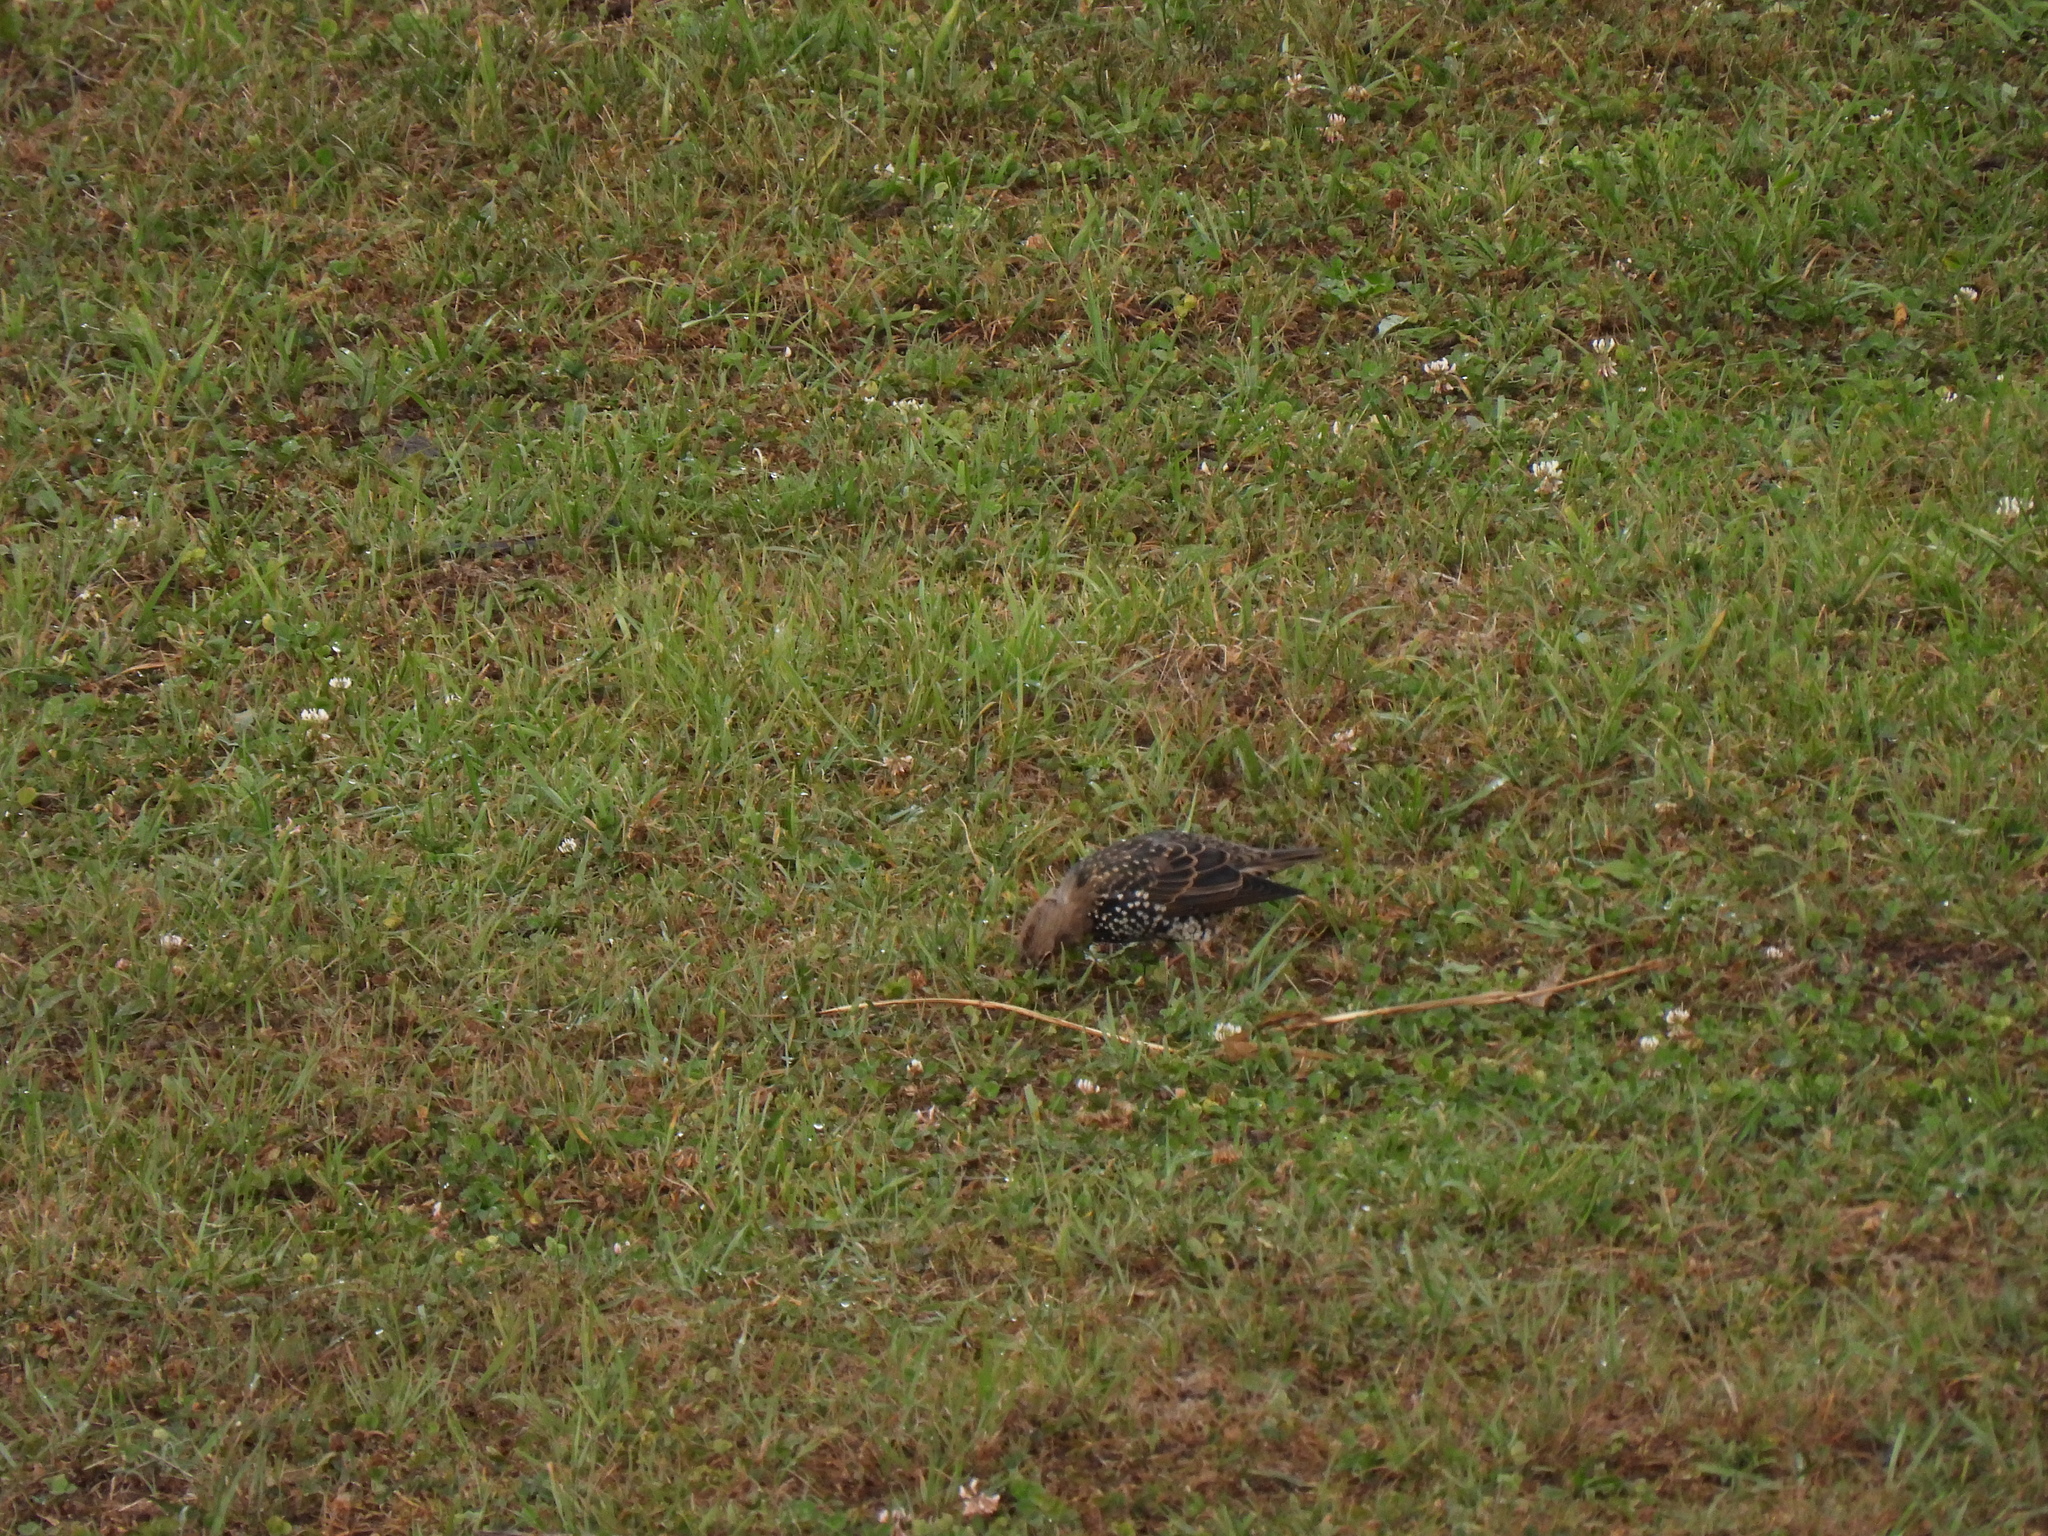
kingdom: Animalia
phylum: Chordata
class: Aves
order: Passeriformes
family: Sturnidae
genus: Sturnus
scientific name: Sturnus vulgaris
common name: Common starling
